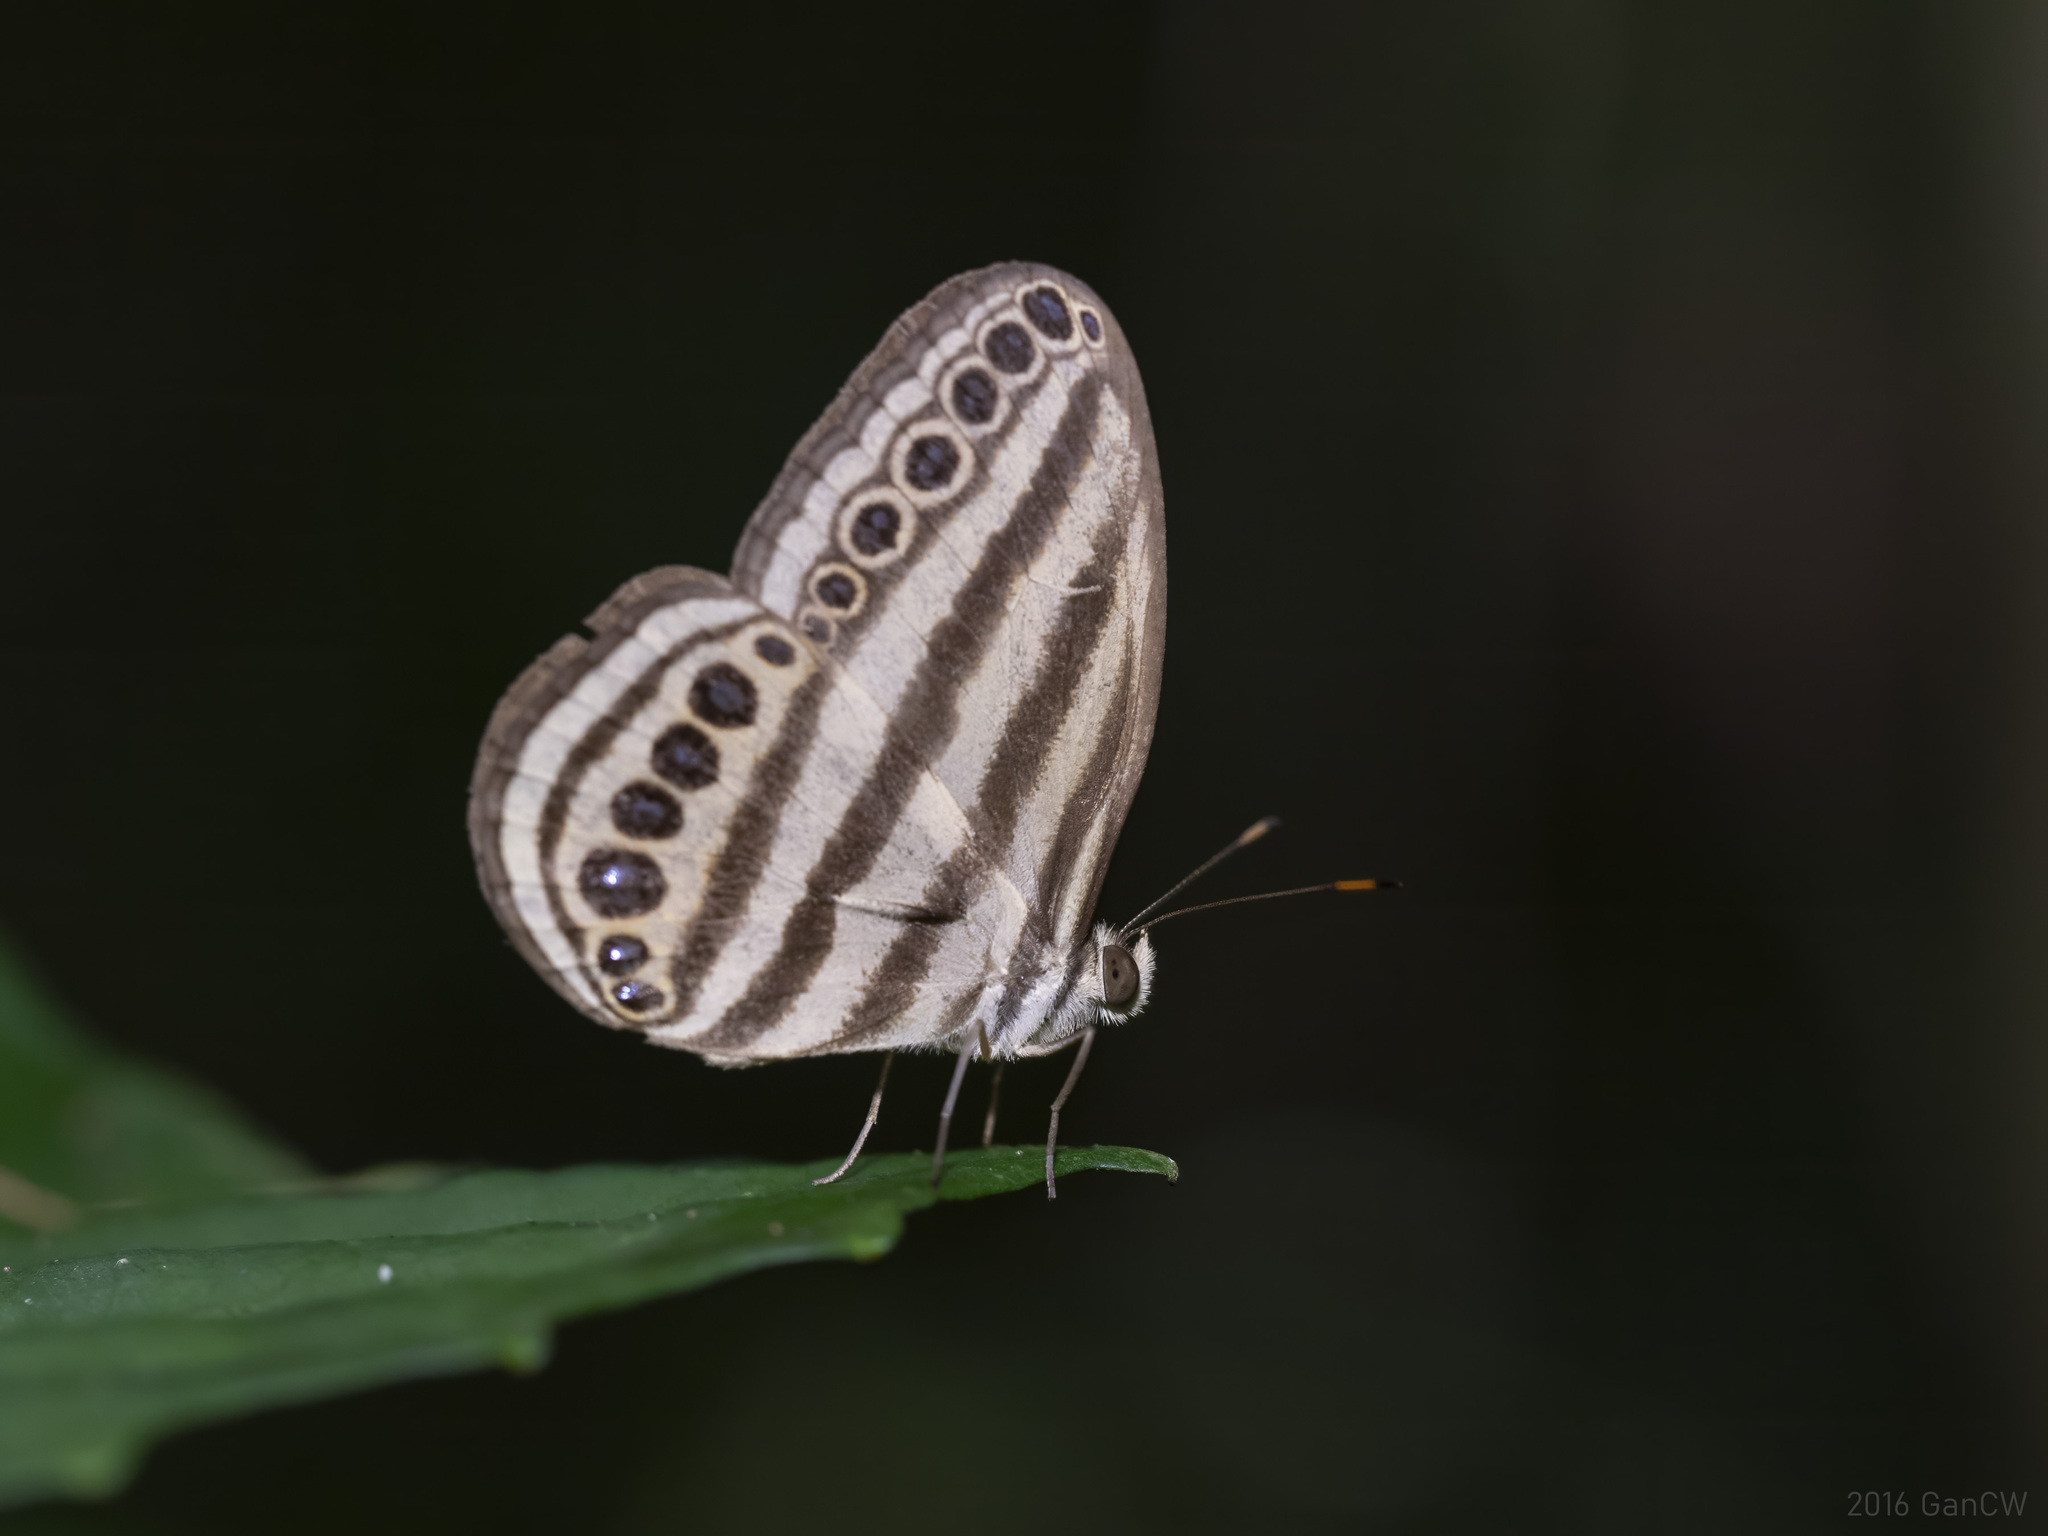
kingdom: Animalia
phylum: Arthropoda
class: Insecta
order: Lepidoptera
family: Nymphalidae
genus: Ragadia
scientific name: Ragadia makuta
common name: Striped ringlet
